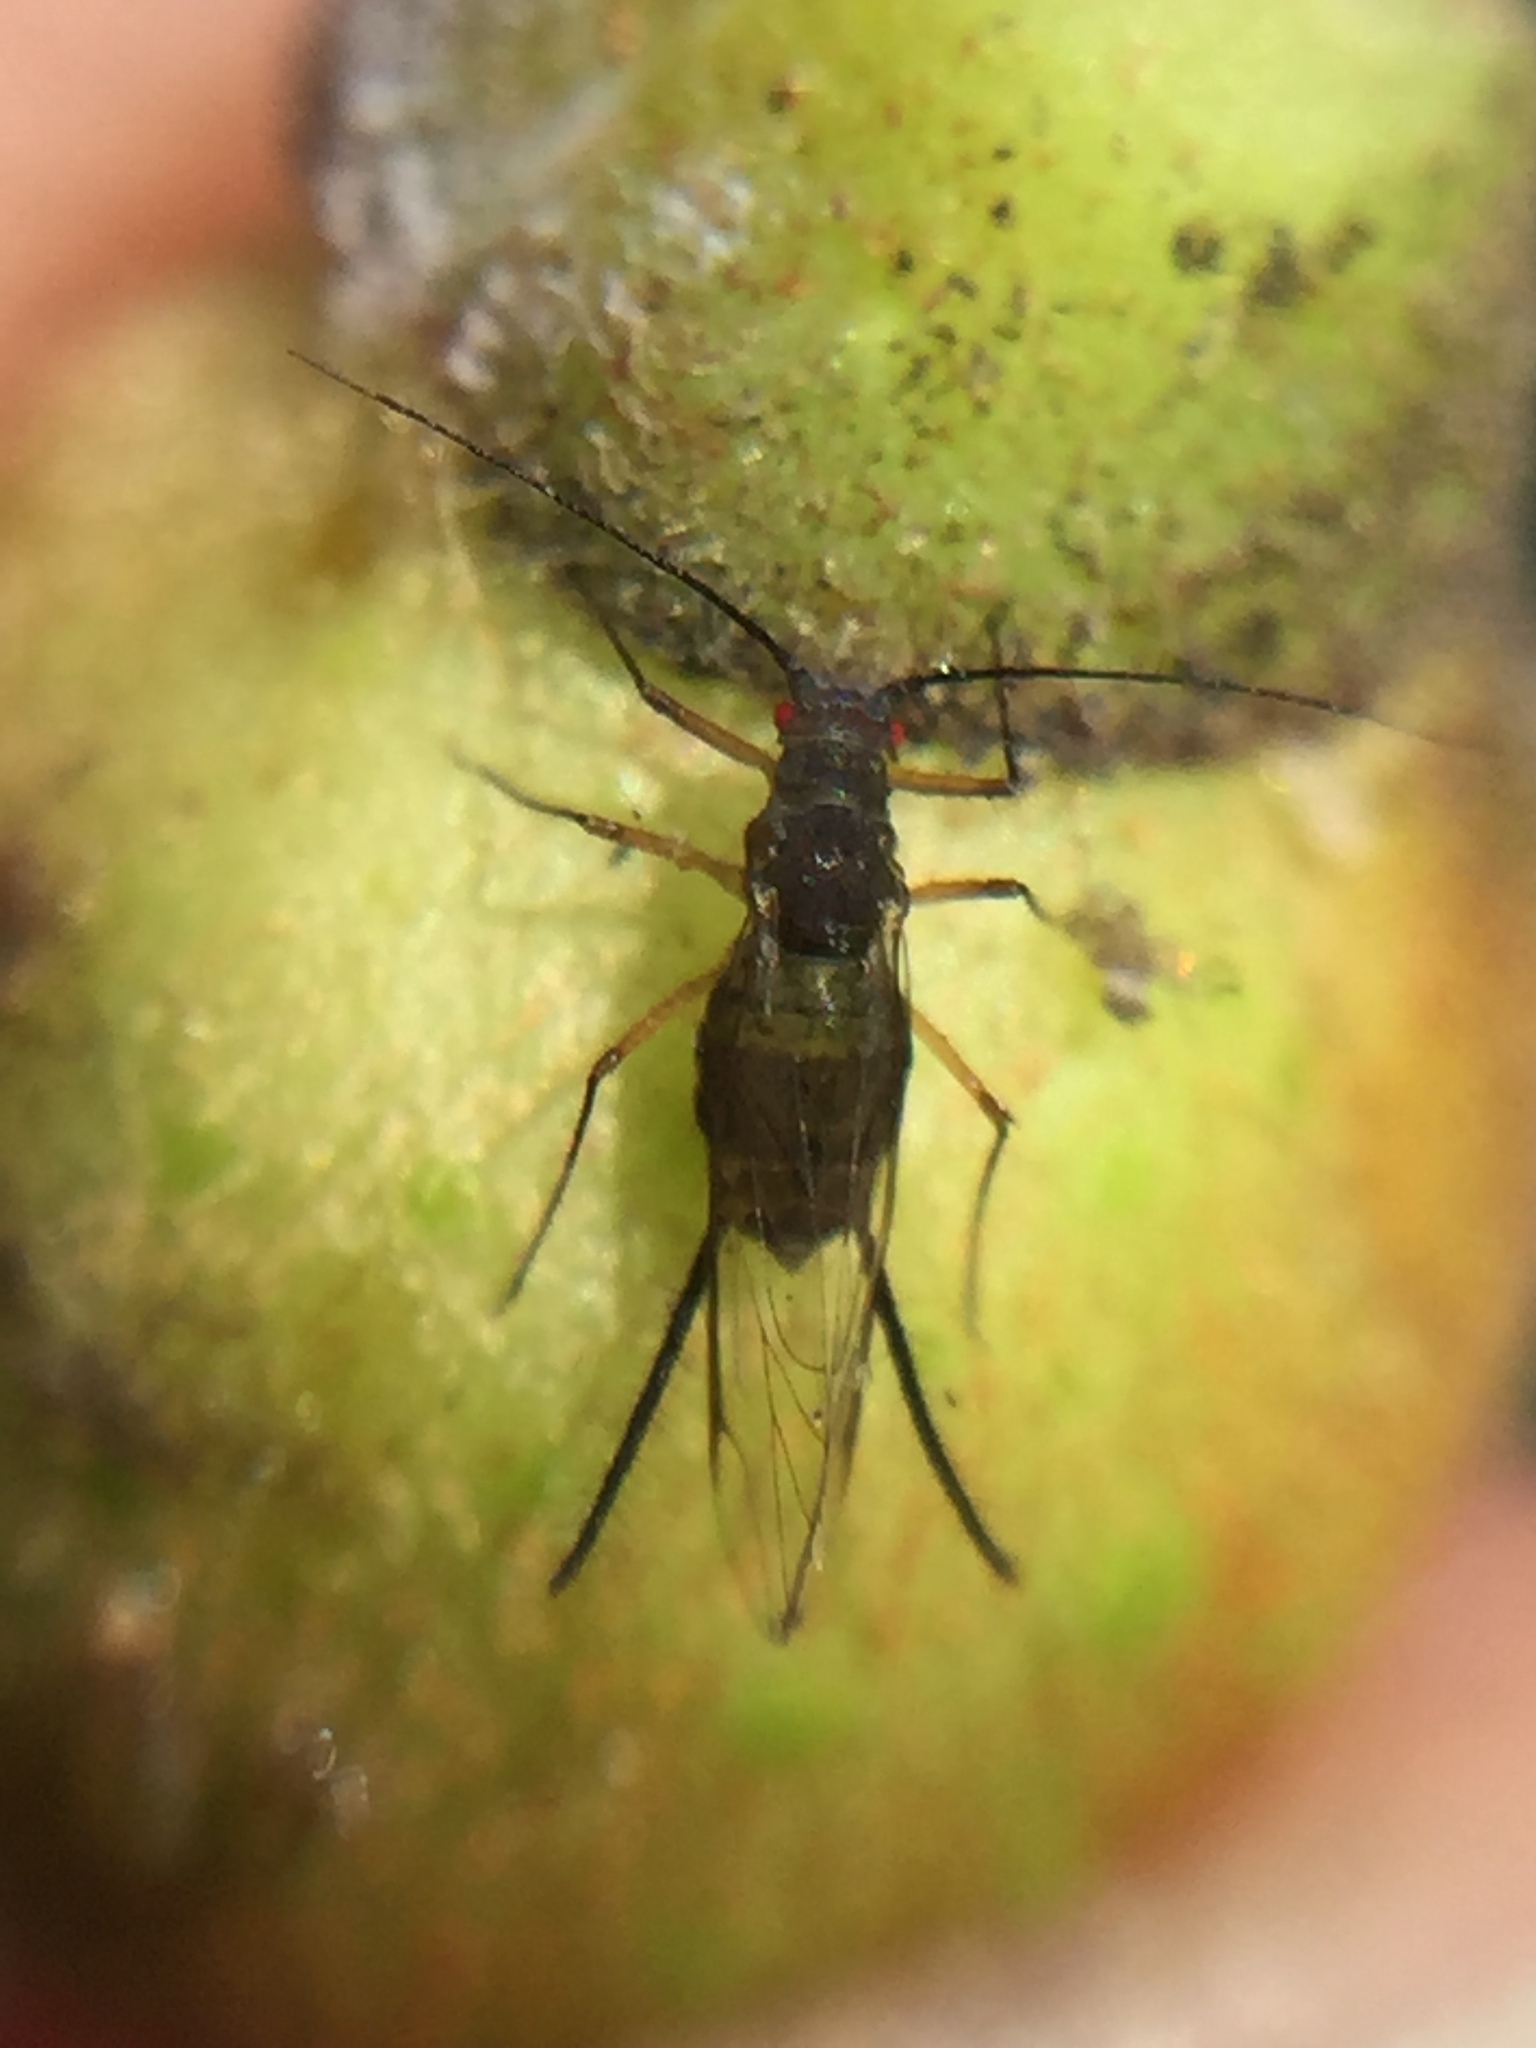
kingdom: Animalia
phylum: Arthropoda
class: Insecta
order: Hemiptera
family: Aphididae
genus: Greenidea
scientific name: Greenidea ficicola
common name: Aphid
